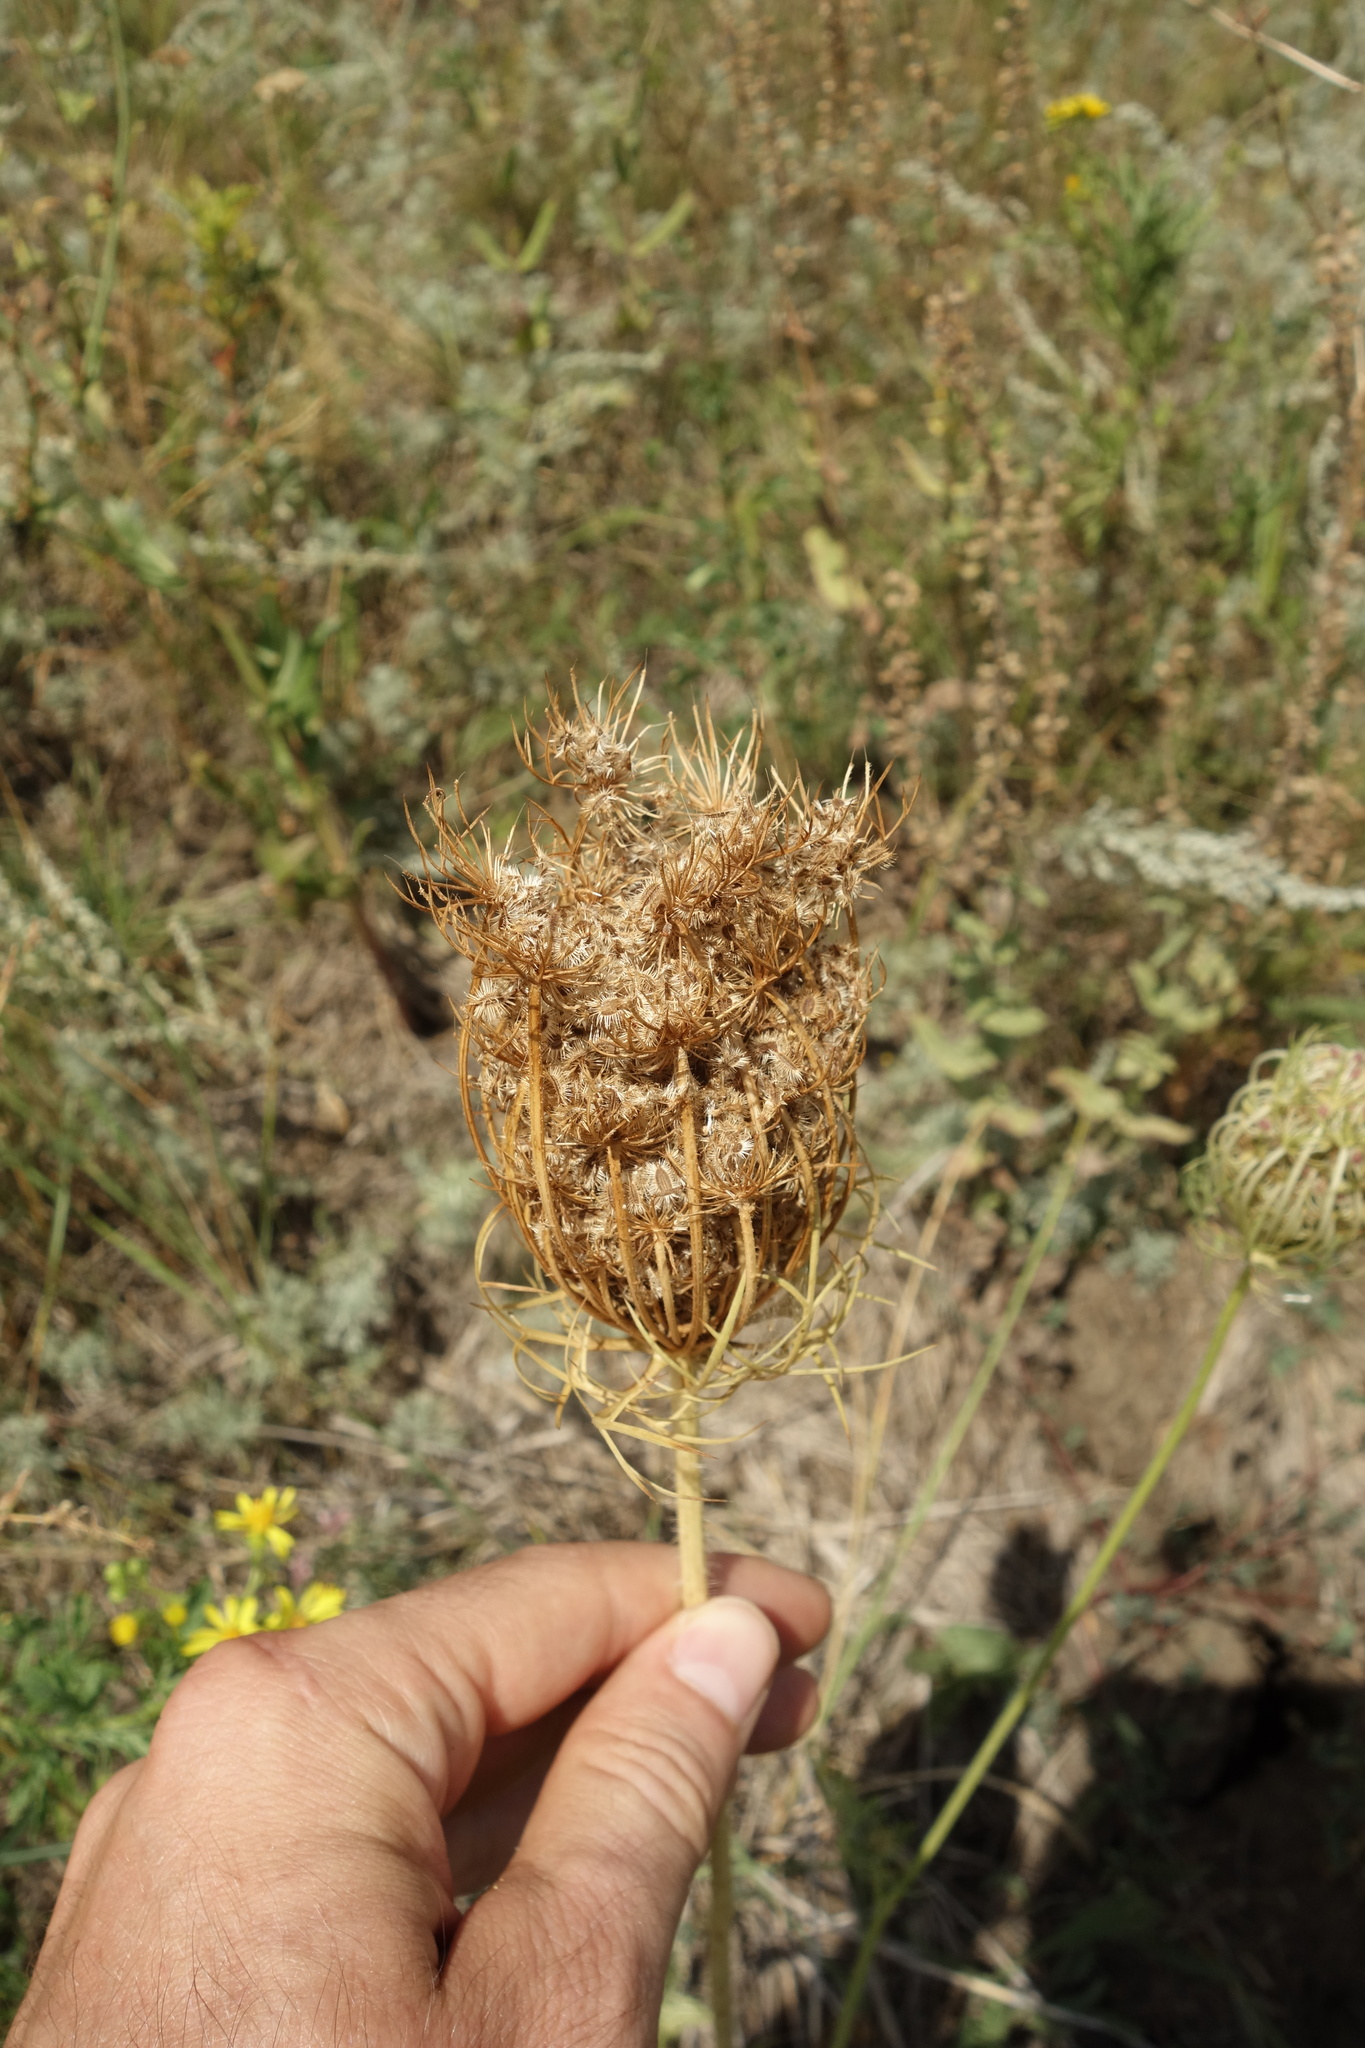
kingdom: Plantae
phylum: Tracheophyta
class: Magnoliopsida
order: Apiales
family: Apiaceae
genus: Daucus
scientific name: Daucus carota
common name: Wild carrot
